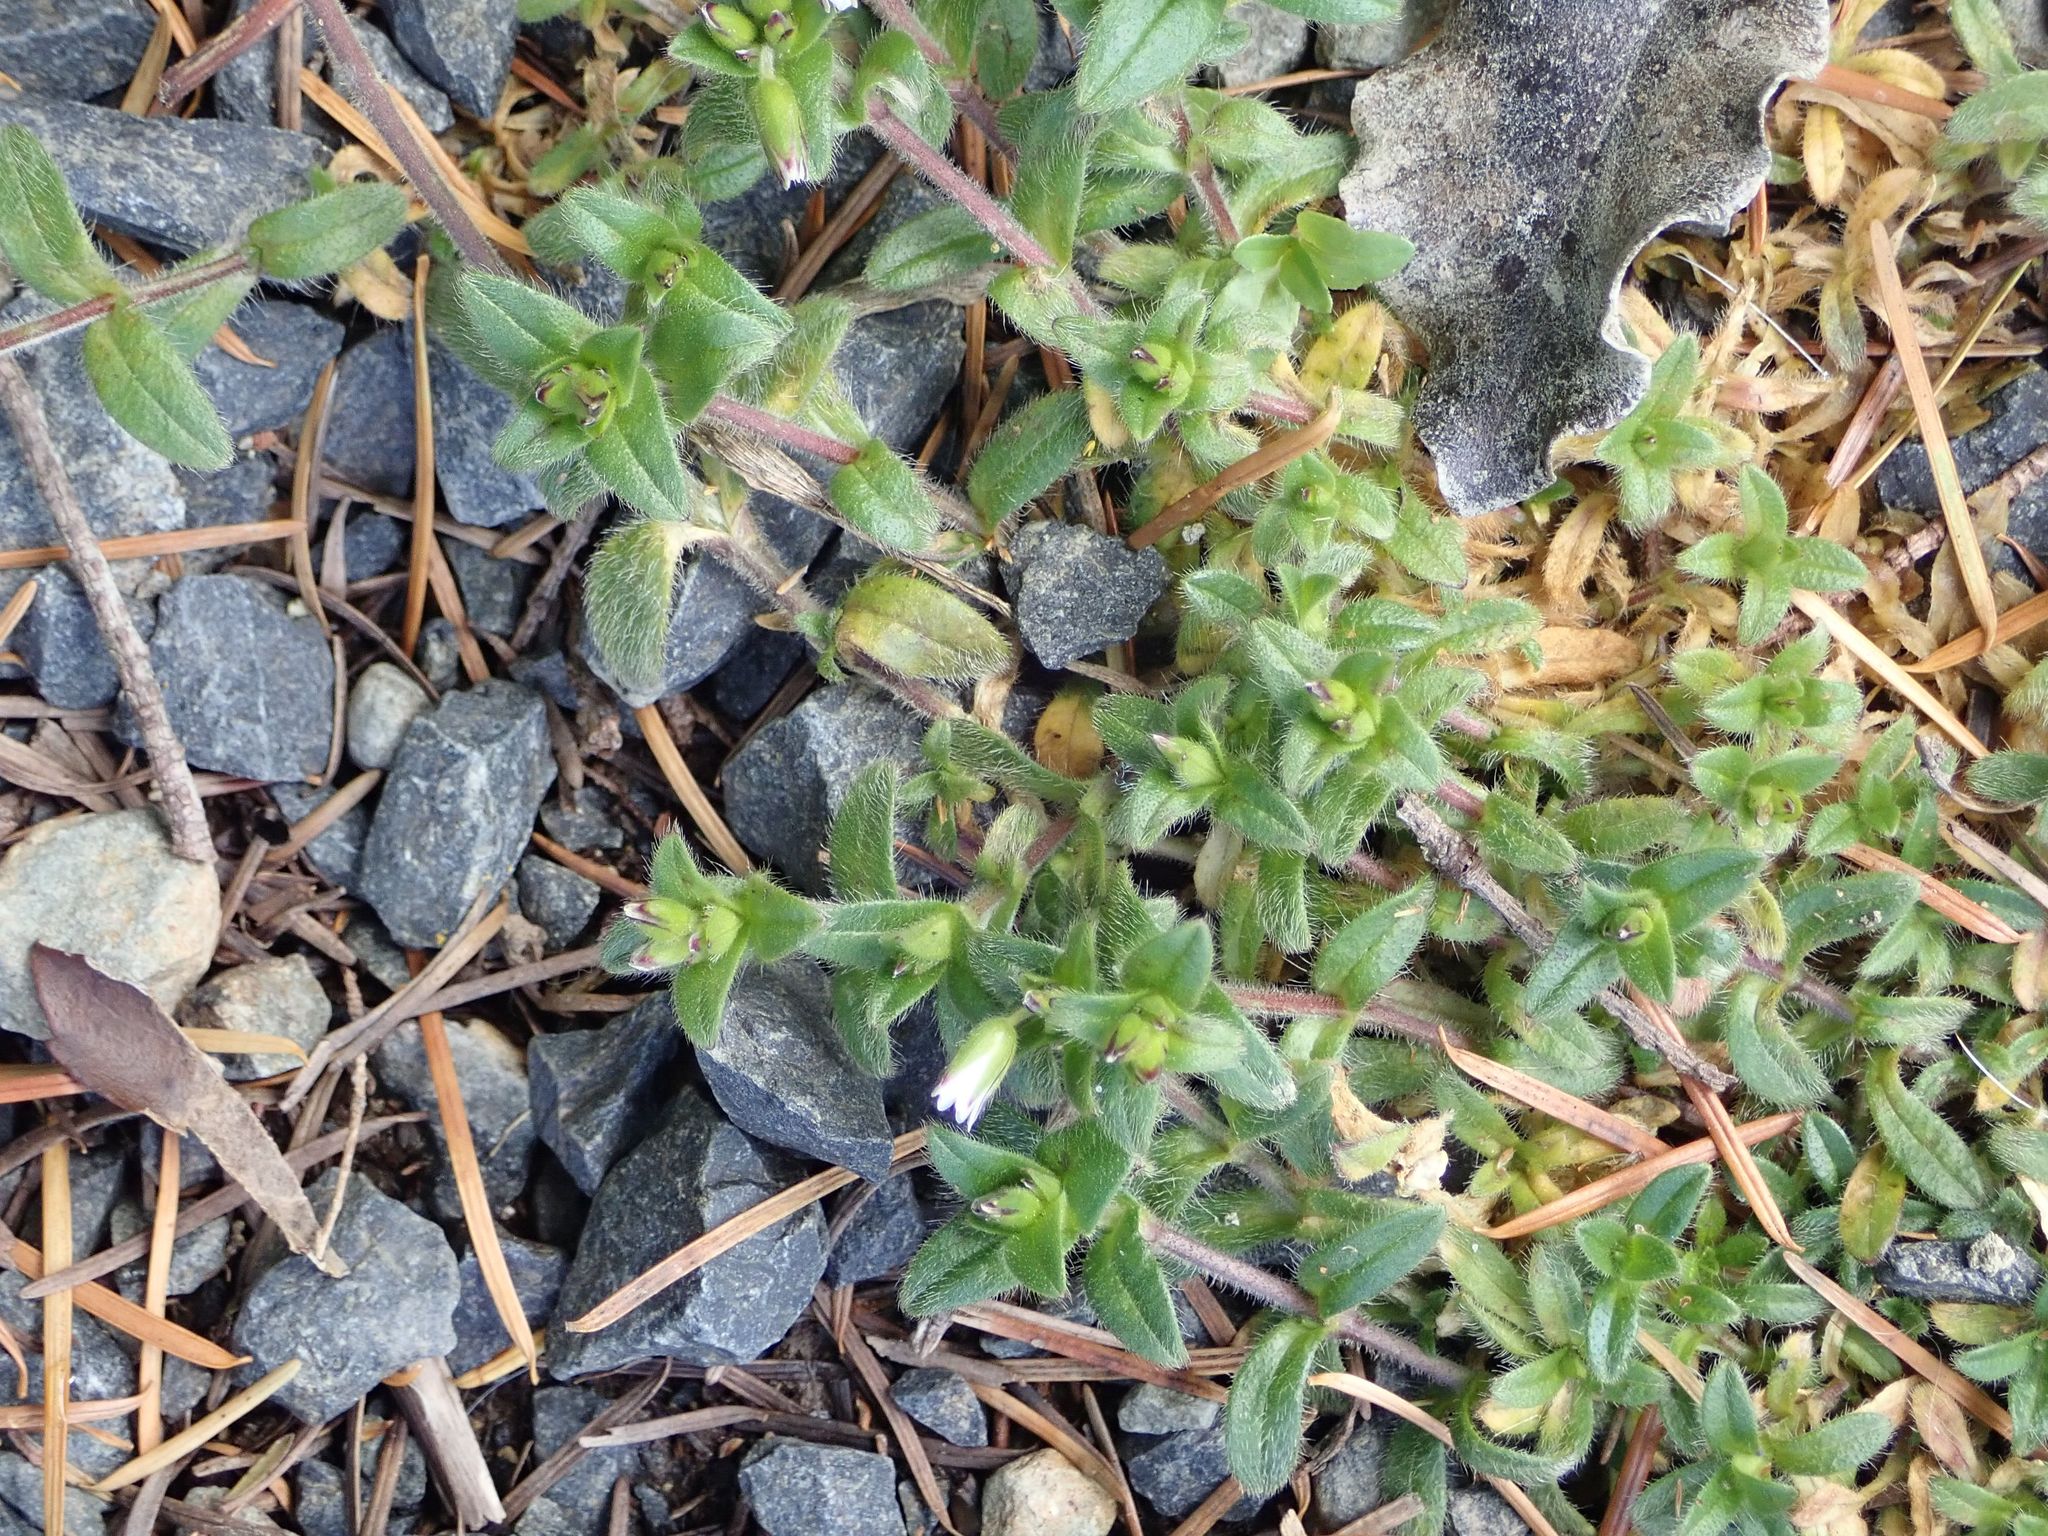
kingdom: Plantae
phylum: Tracheophyta
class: Magnoliopsida
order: Caryophyllales
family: Caryophyllaceae
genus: Cerastium
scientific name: Cerastium fontanum
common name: Common mouse-ear
